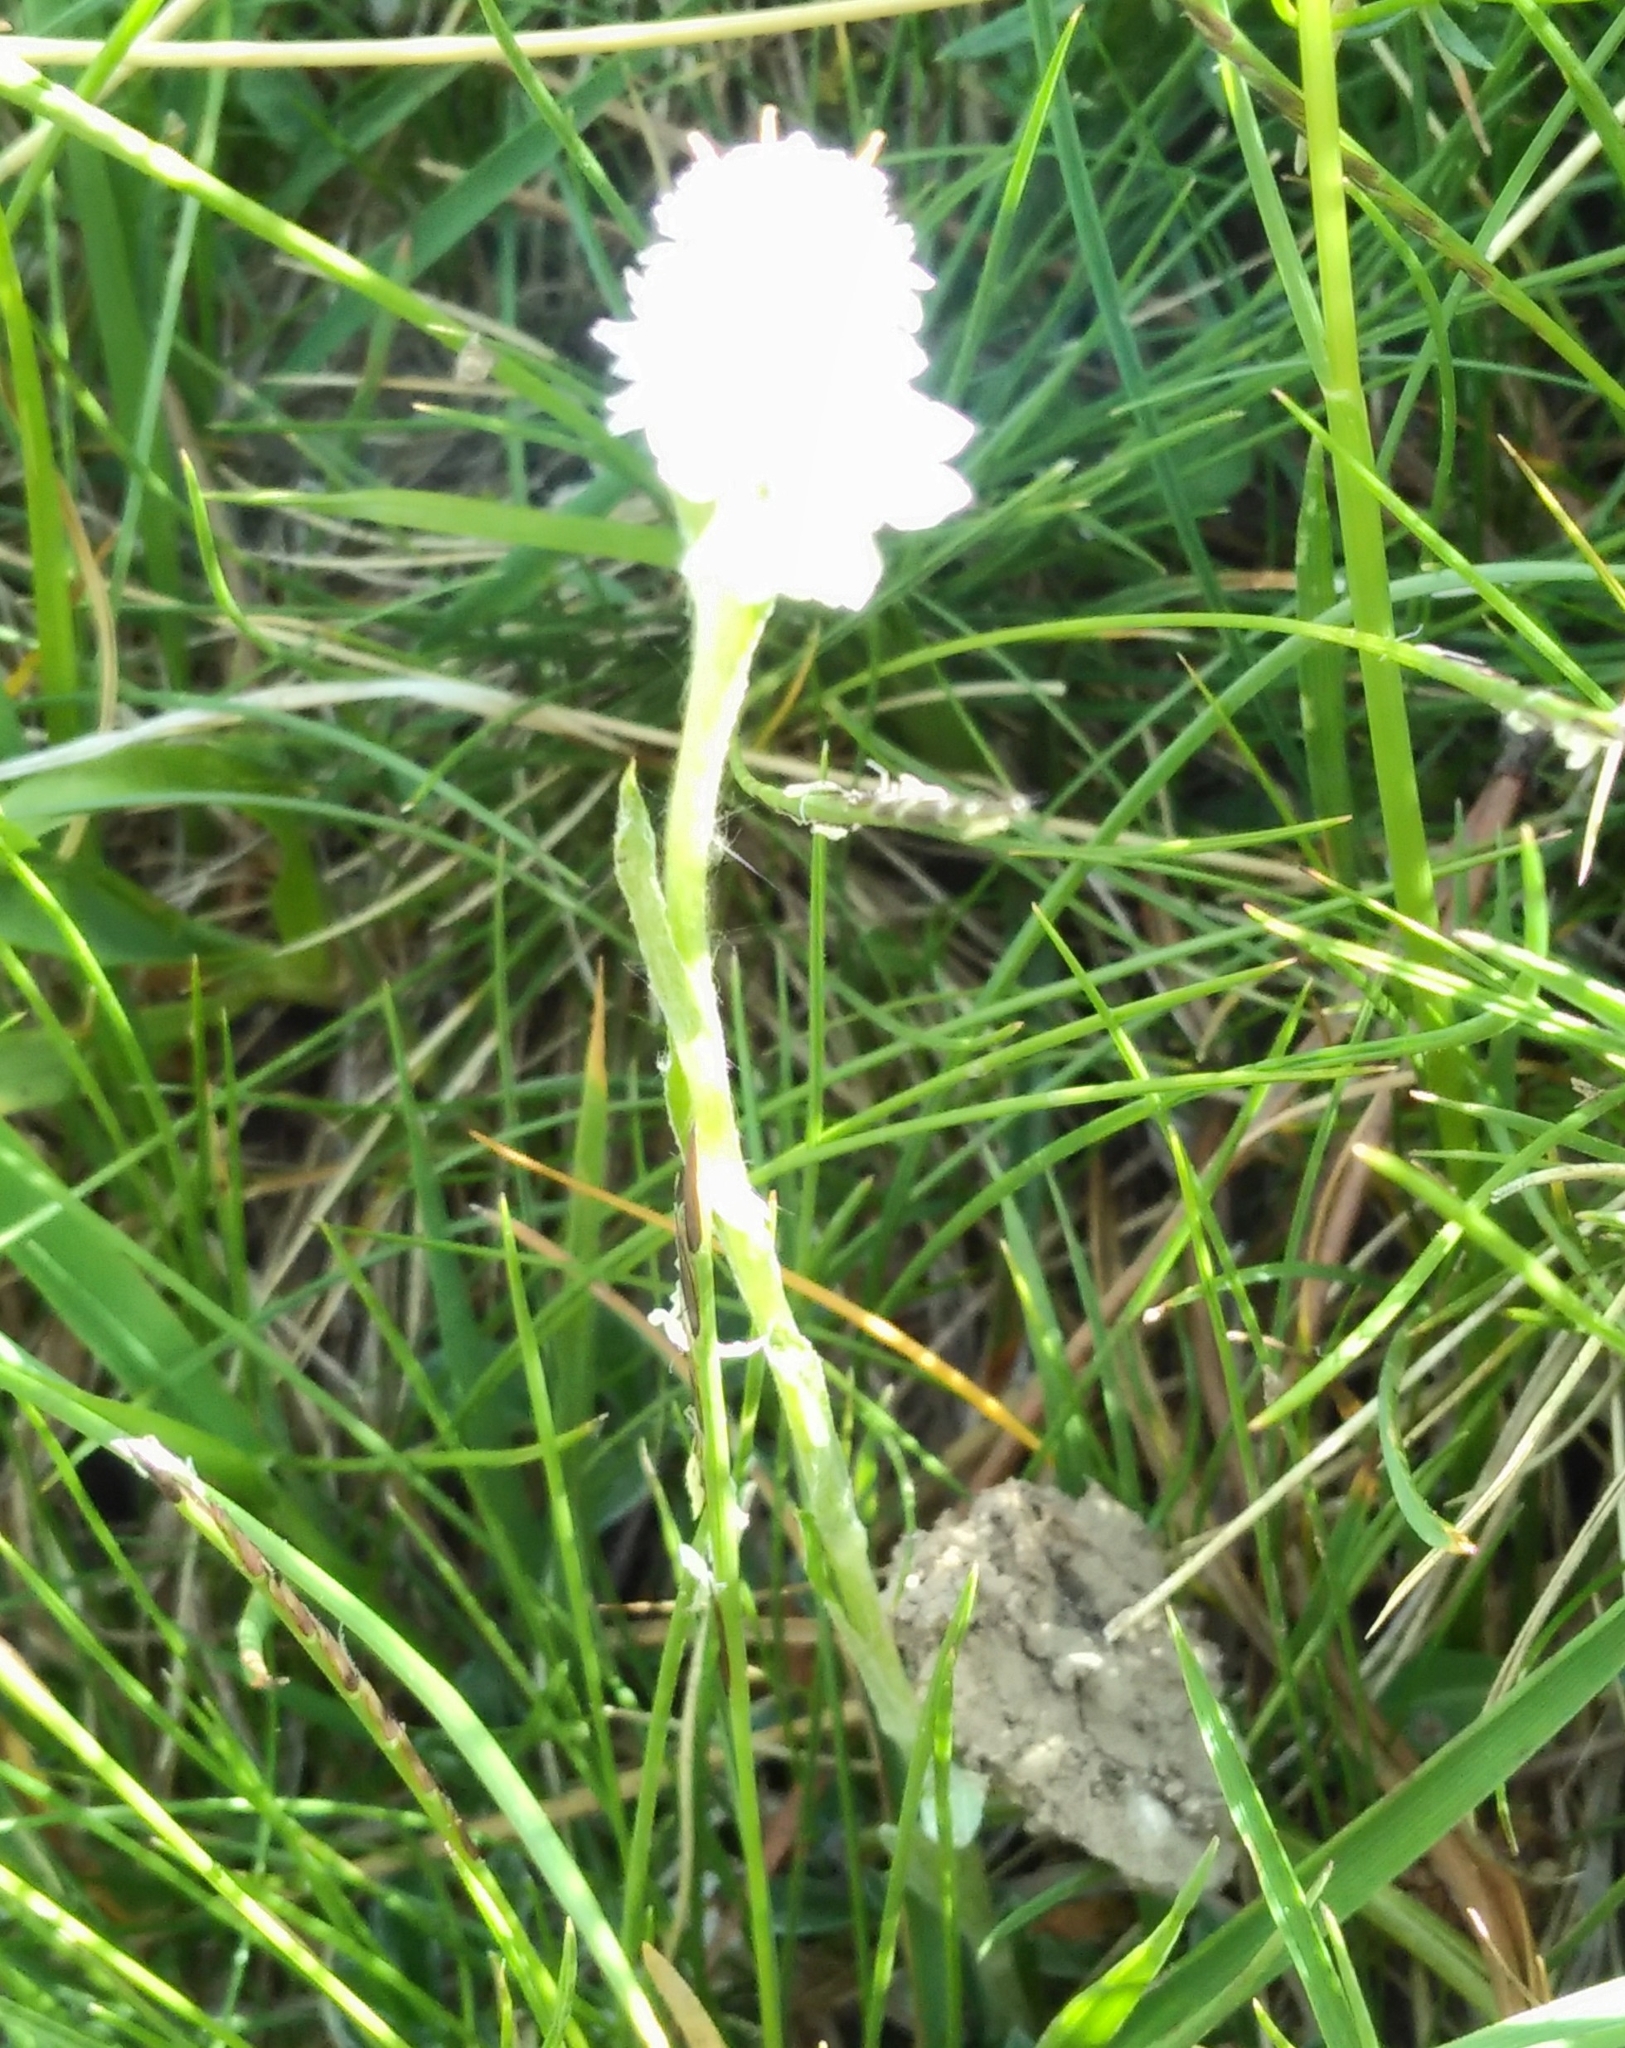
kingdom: Plantae
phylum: Tracheophyta
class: Magnoliopsida
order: Asterales
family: Asteraceae
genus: Antennaria
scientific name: Antennaria dioica
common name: Mountain everlasting
